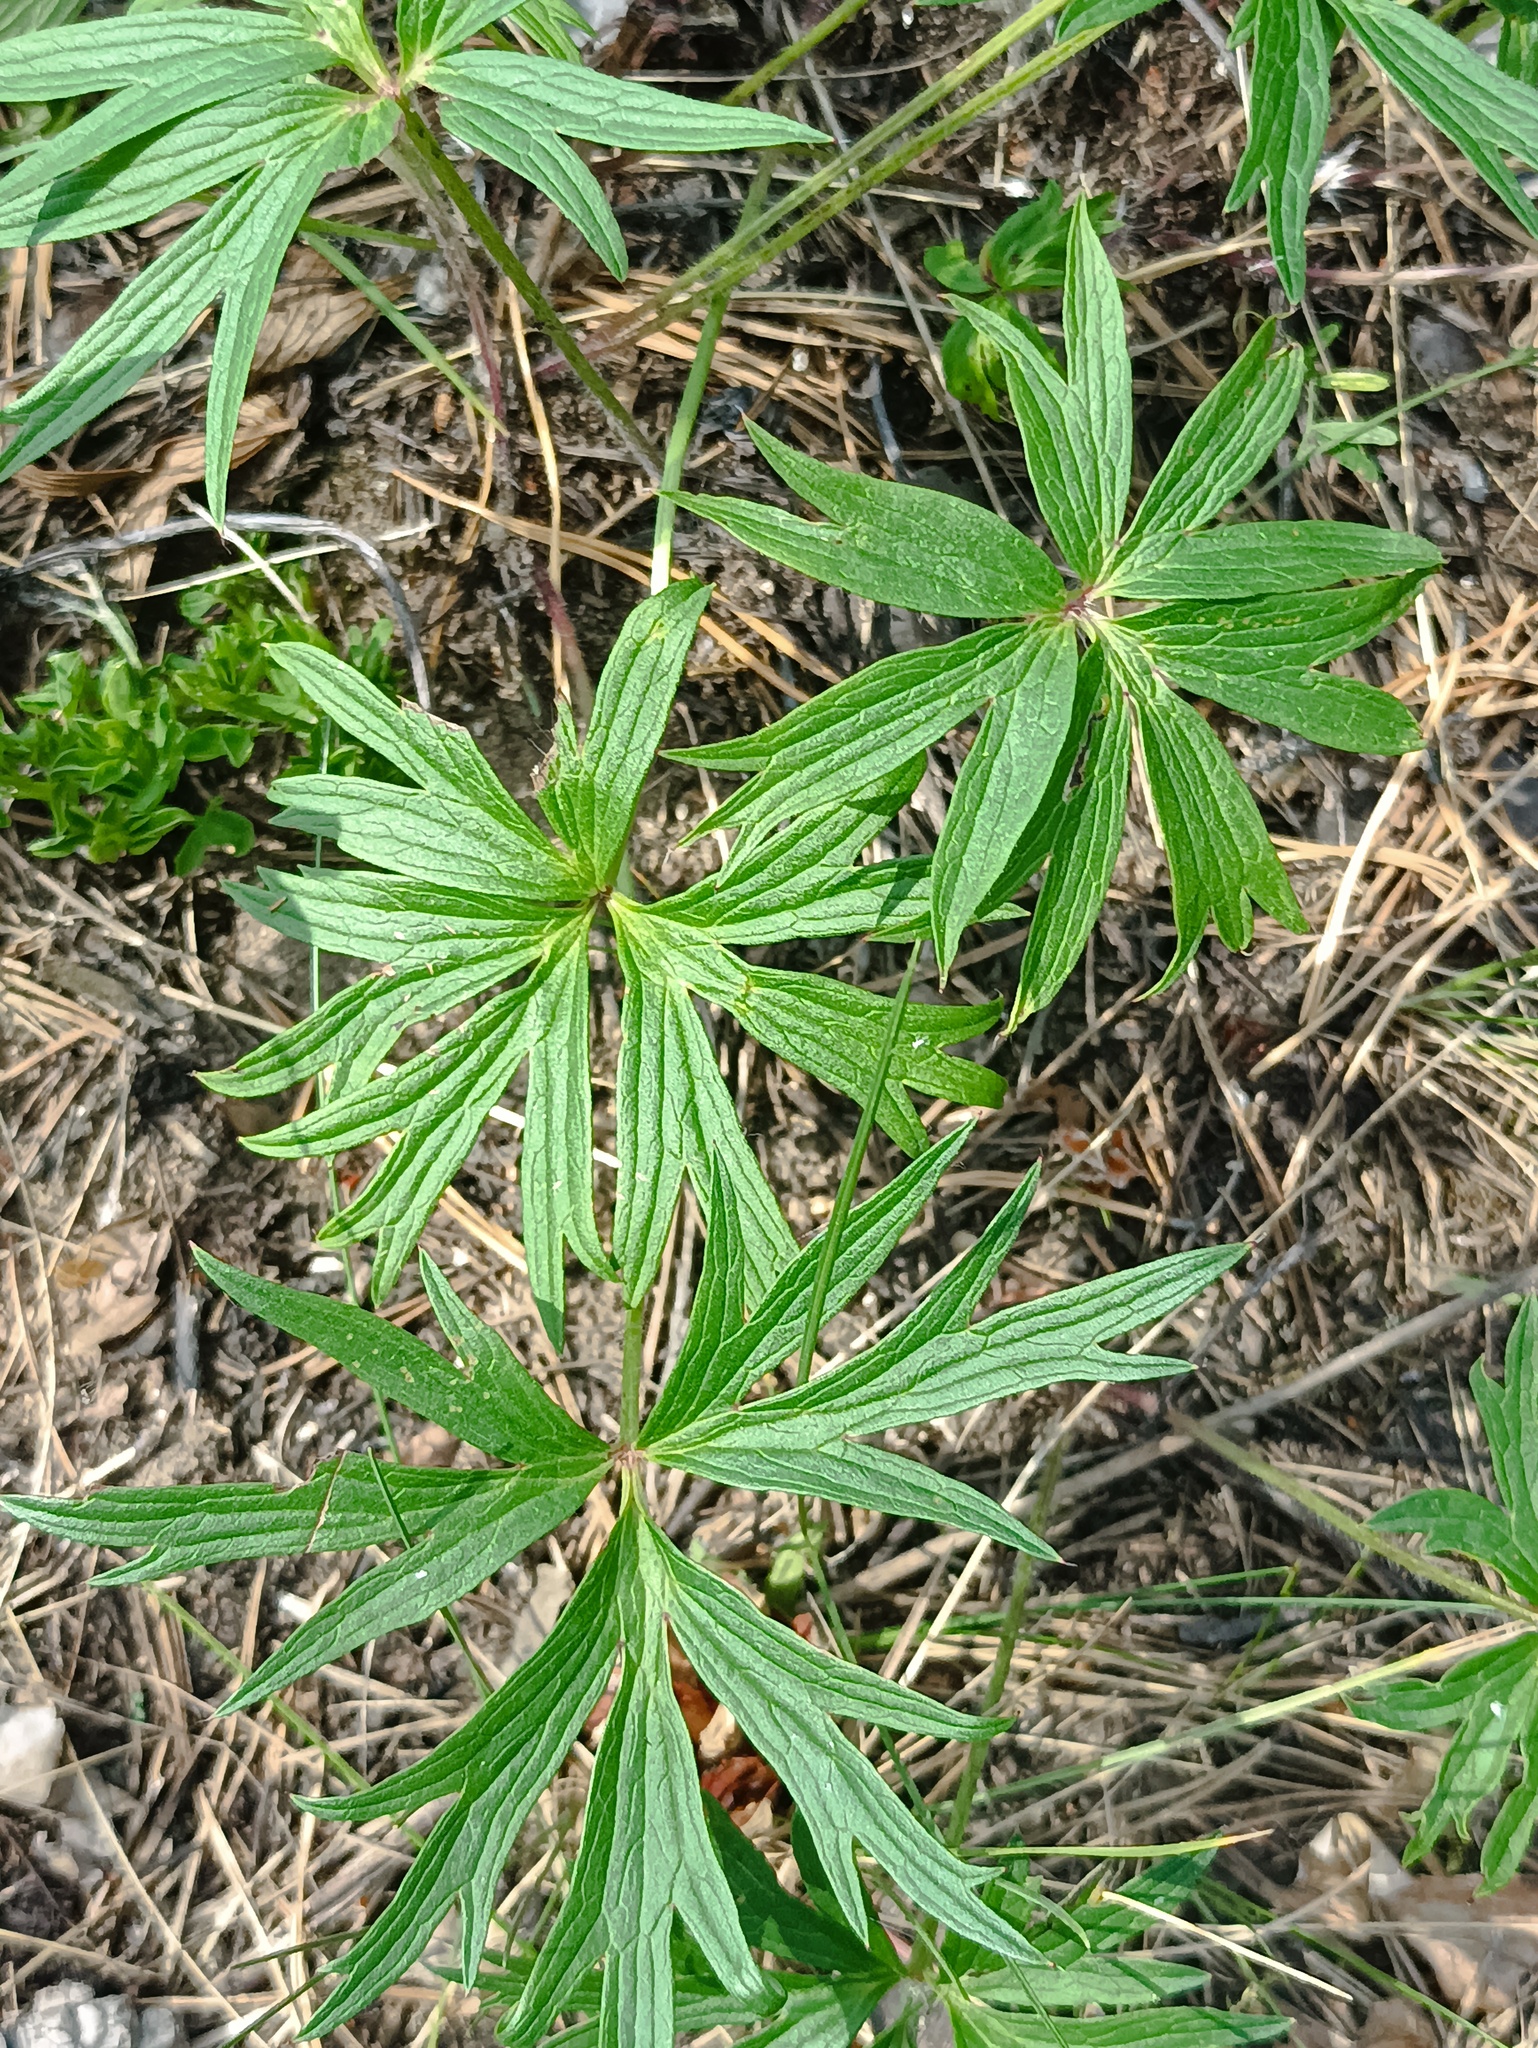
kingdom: Plantae
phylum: Tracheophyta
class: Magnoliopsida
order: Ranunculales
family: Ranunculaceae
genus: Pulsatilla
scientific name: Pulsatilla patens
